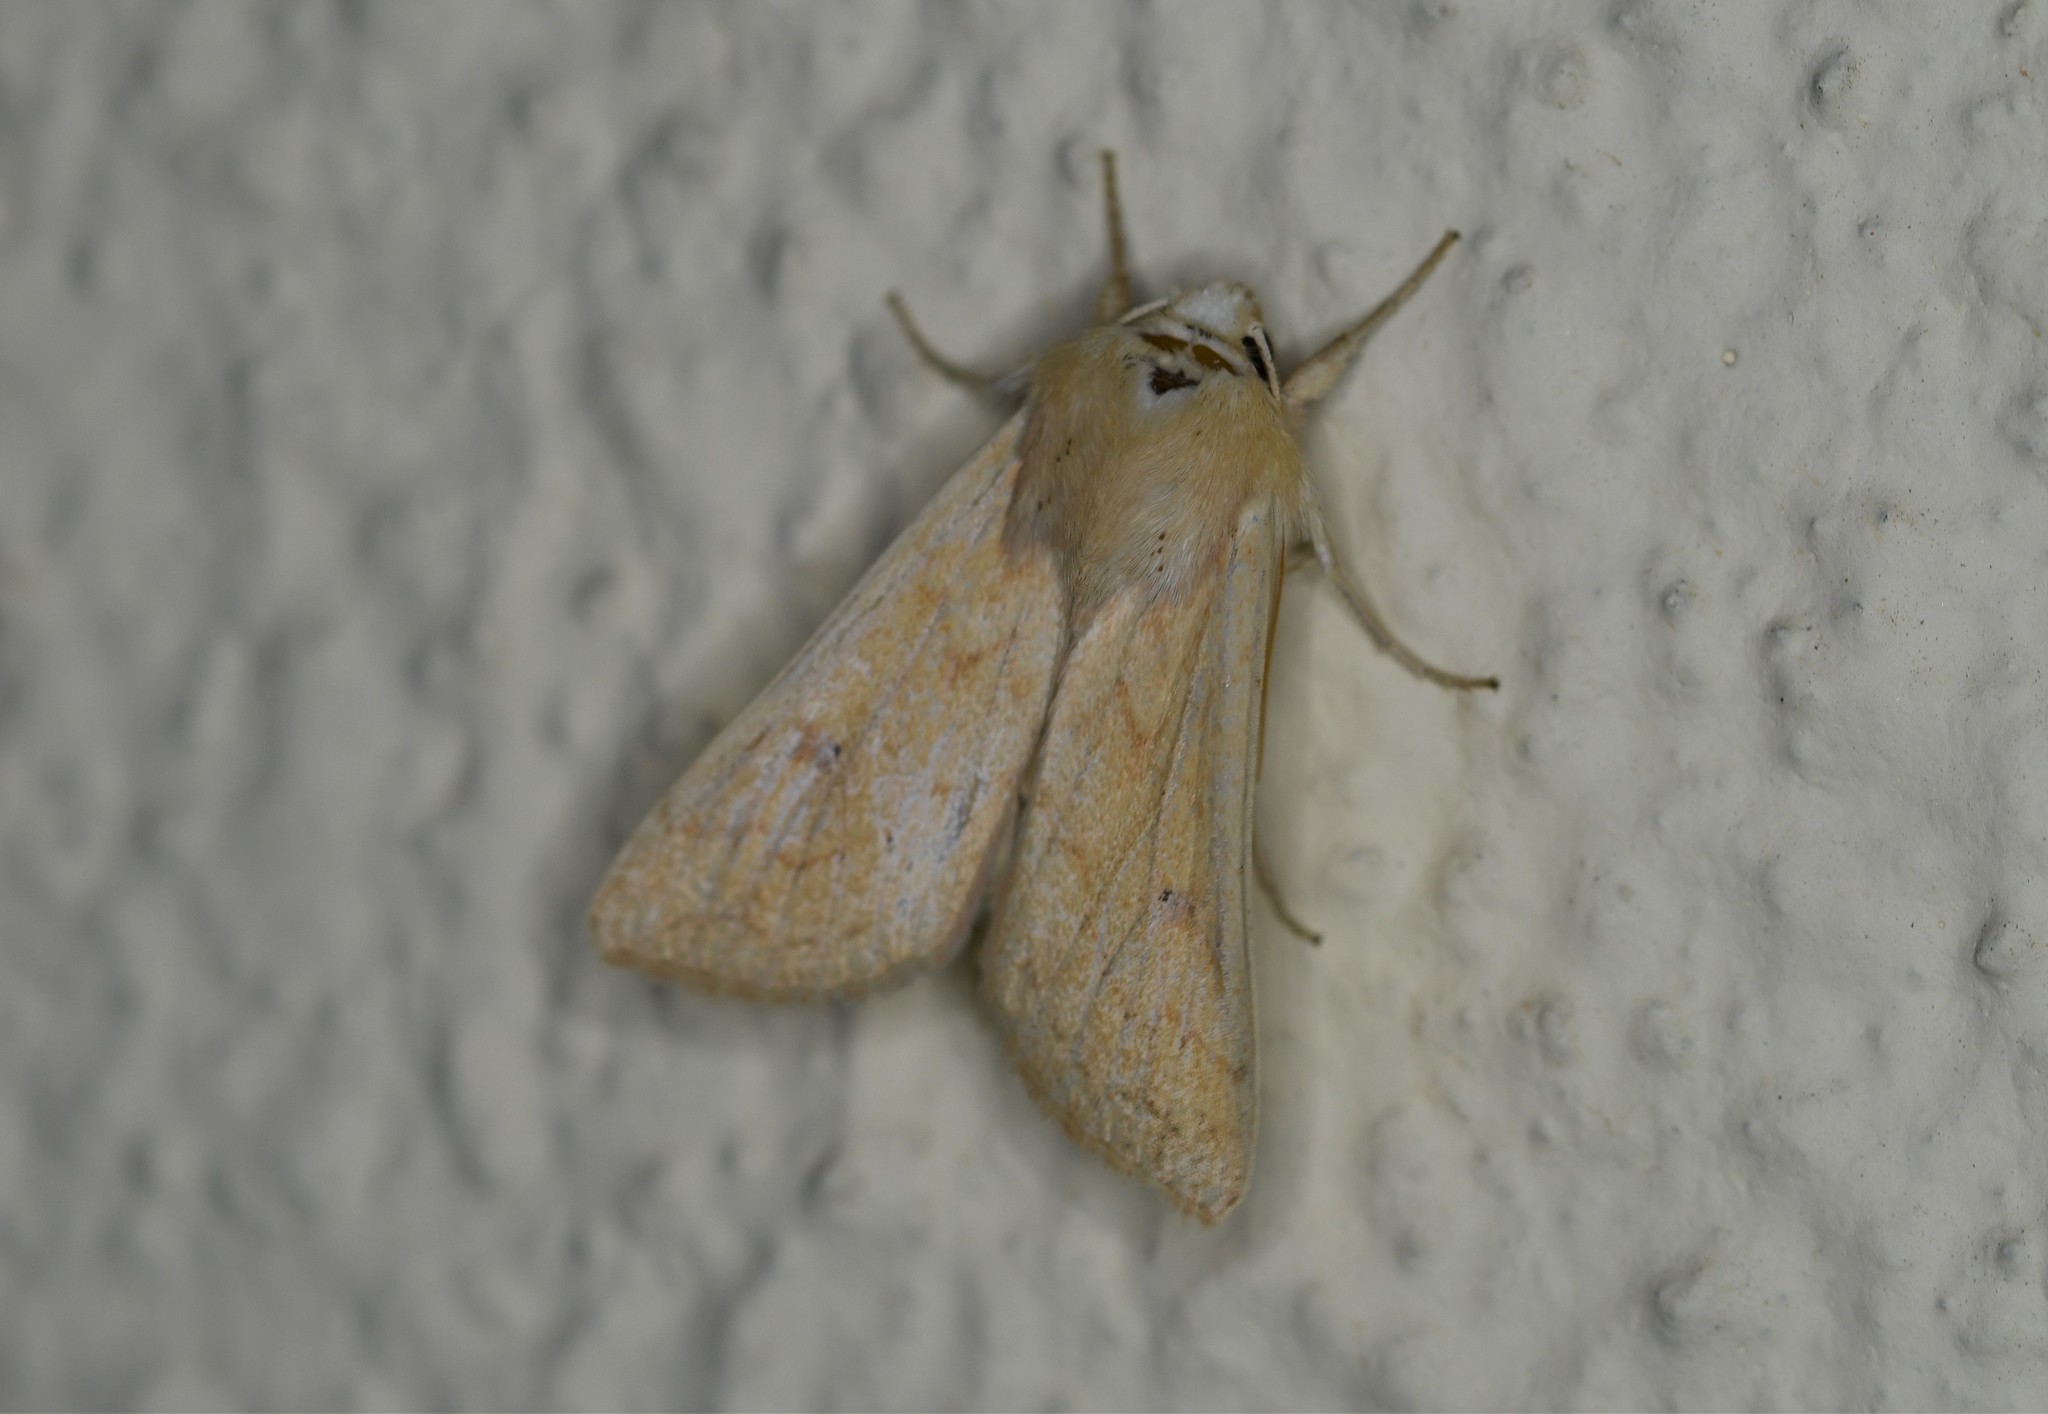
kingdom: Animalia
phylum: Arthropoda
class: Insecta
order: Lepidoptera
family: Noctuidae
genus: Mythimna
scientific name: Mythimna vitellina
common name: Delicate
